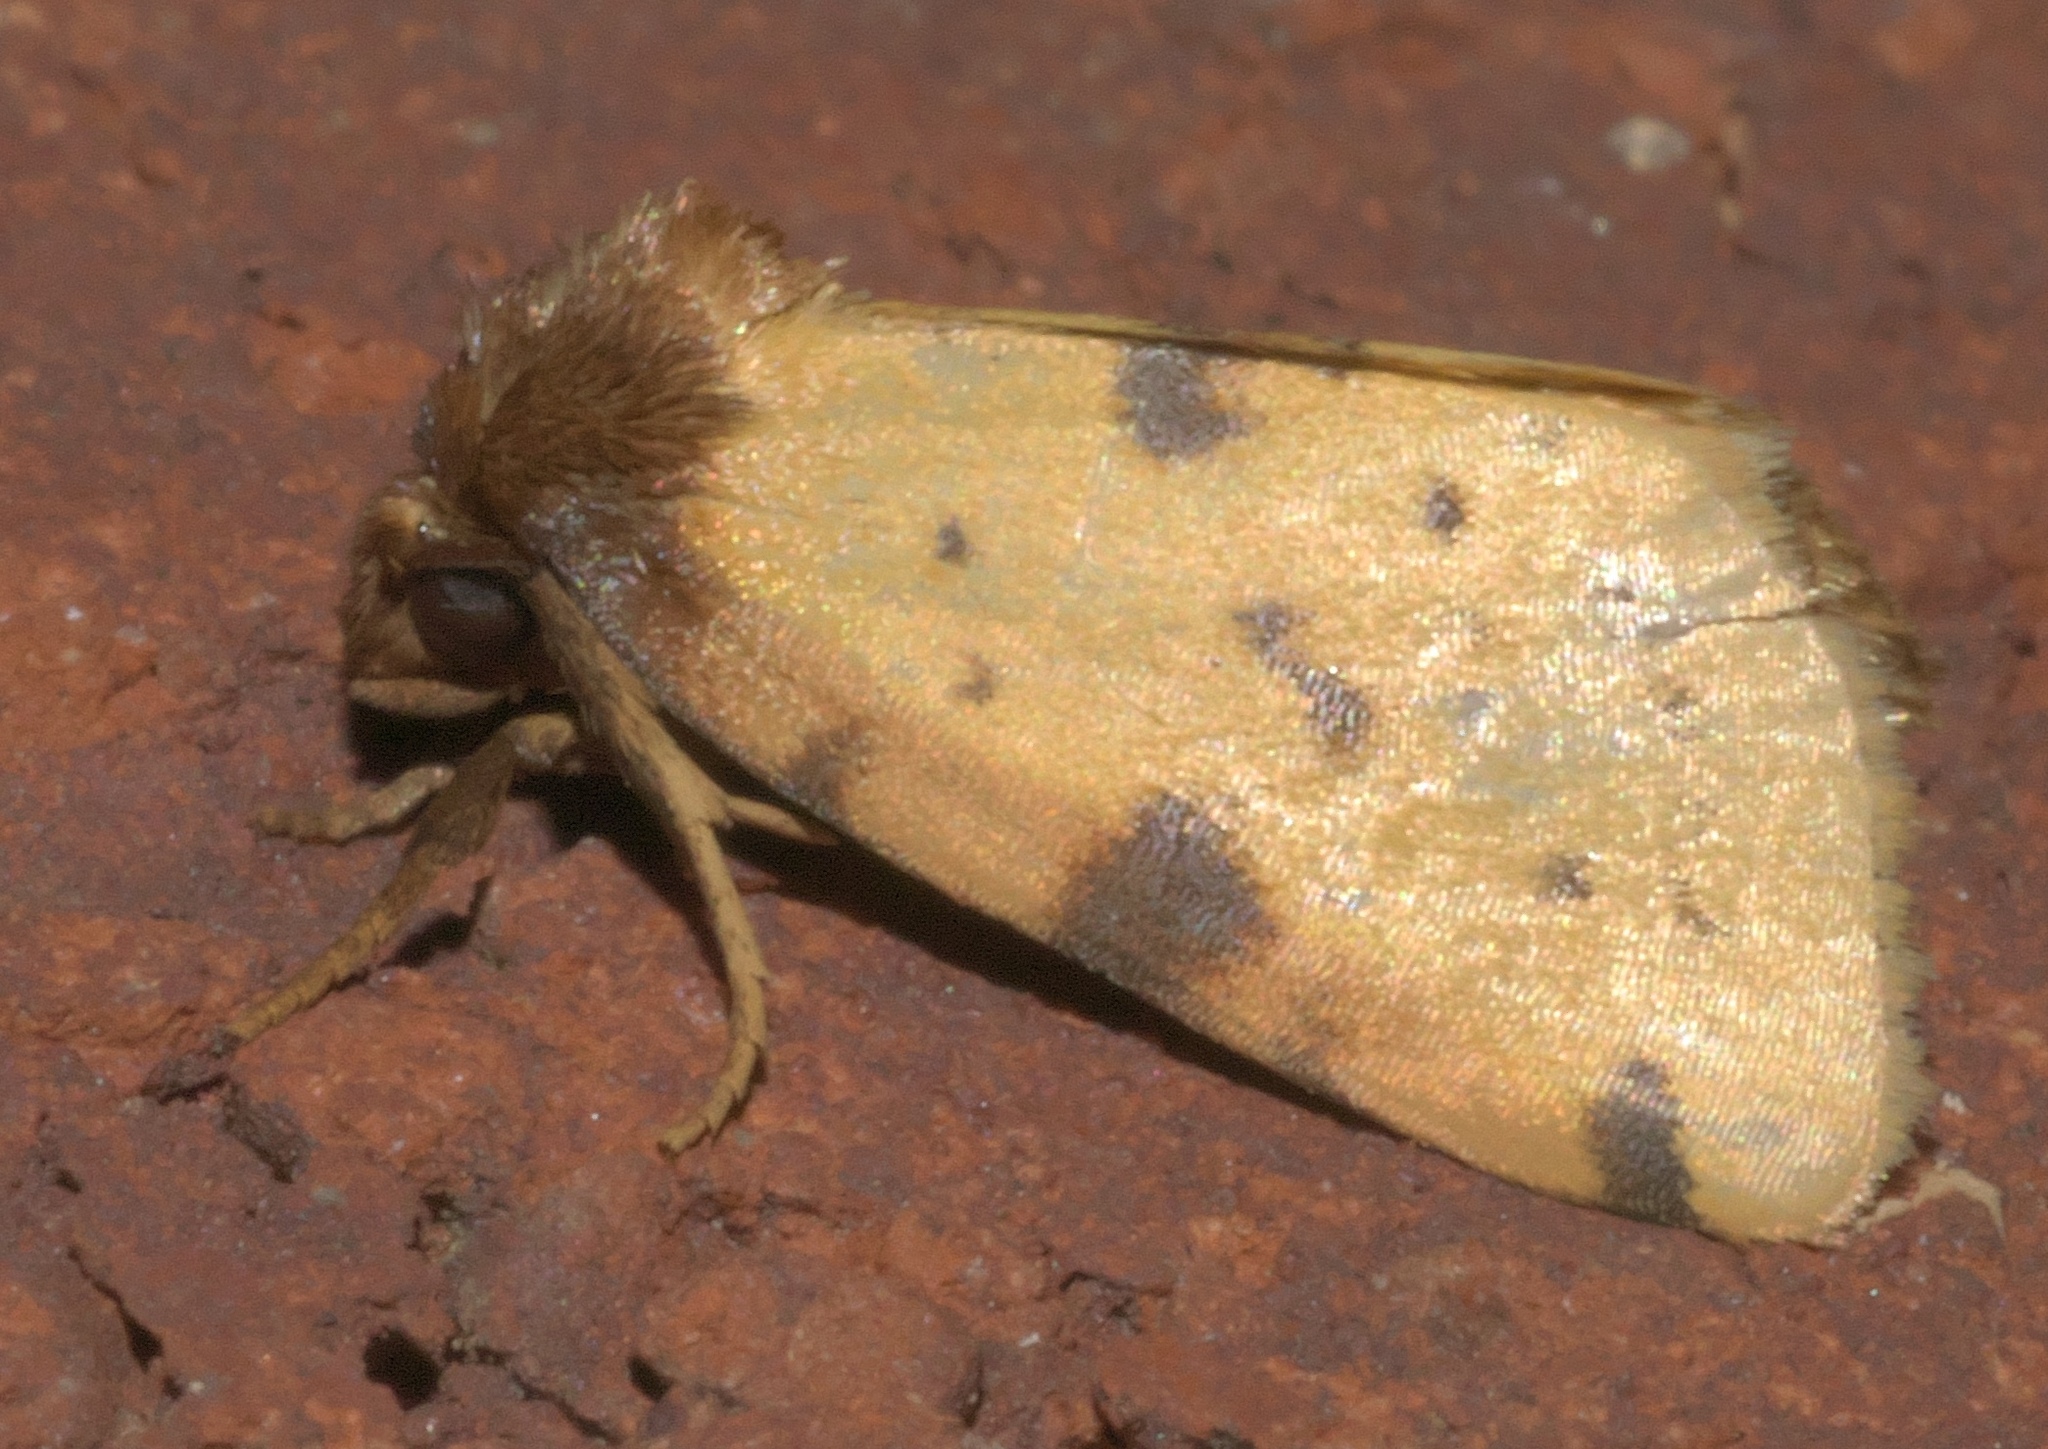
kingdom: Animalia
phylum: Arthropoda
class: Insecta
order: Lepidoptera
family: Noctuidae
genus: Azenia
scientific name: Azenia obtusa
